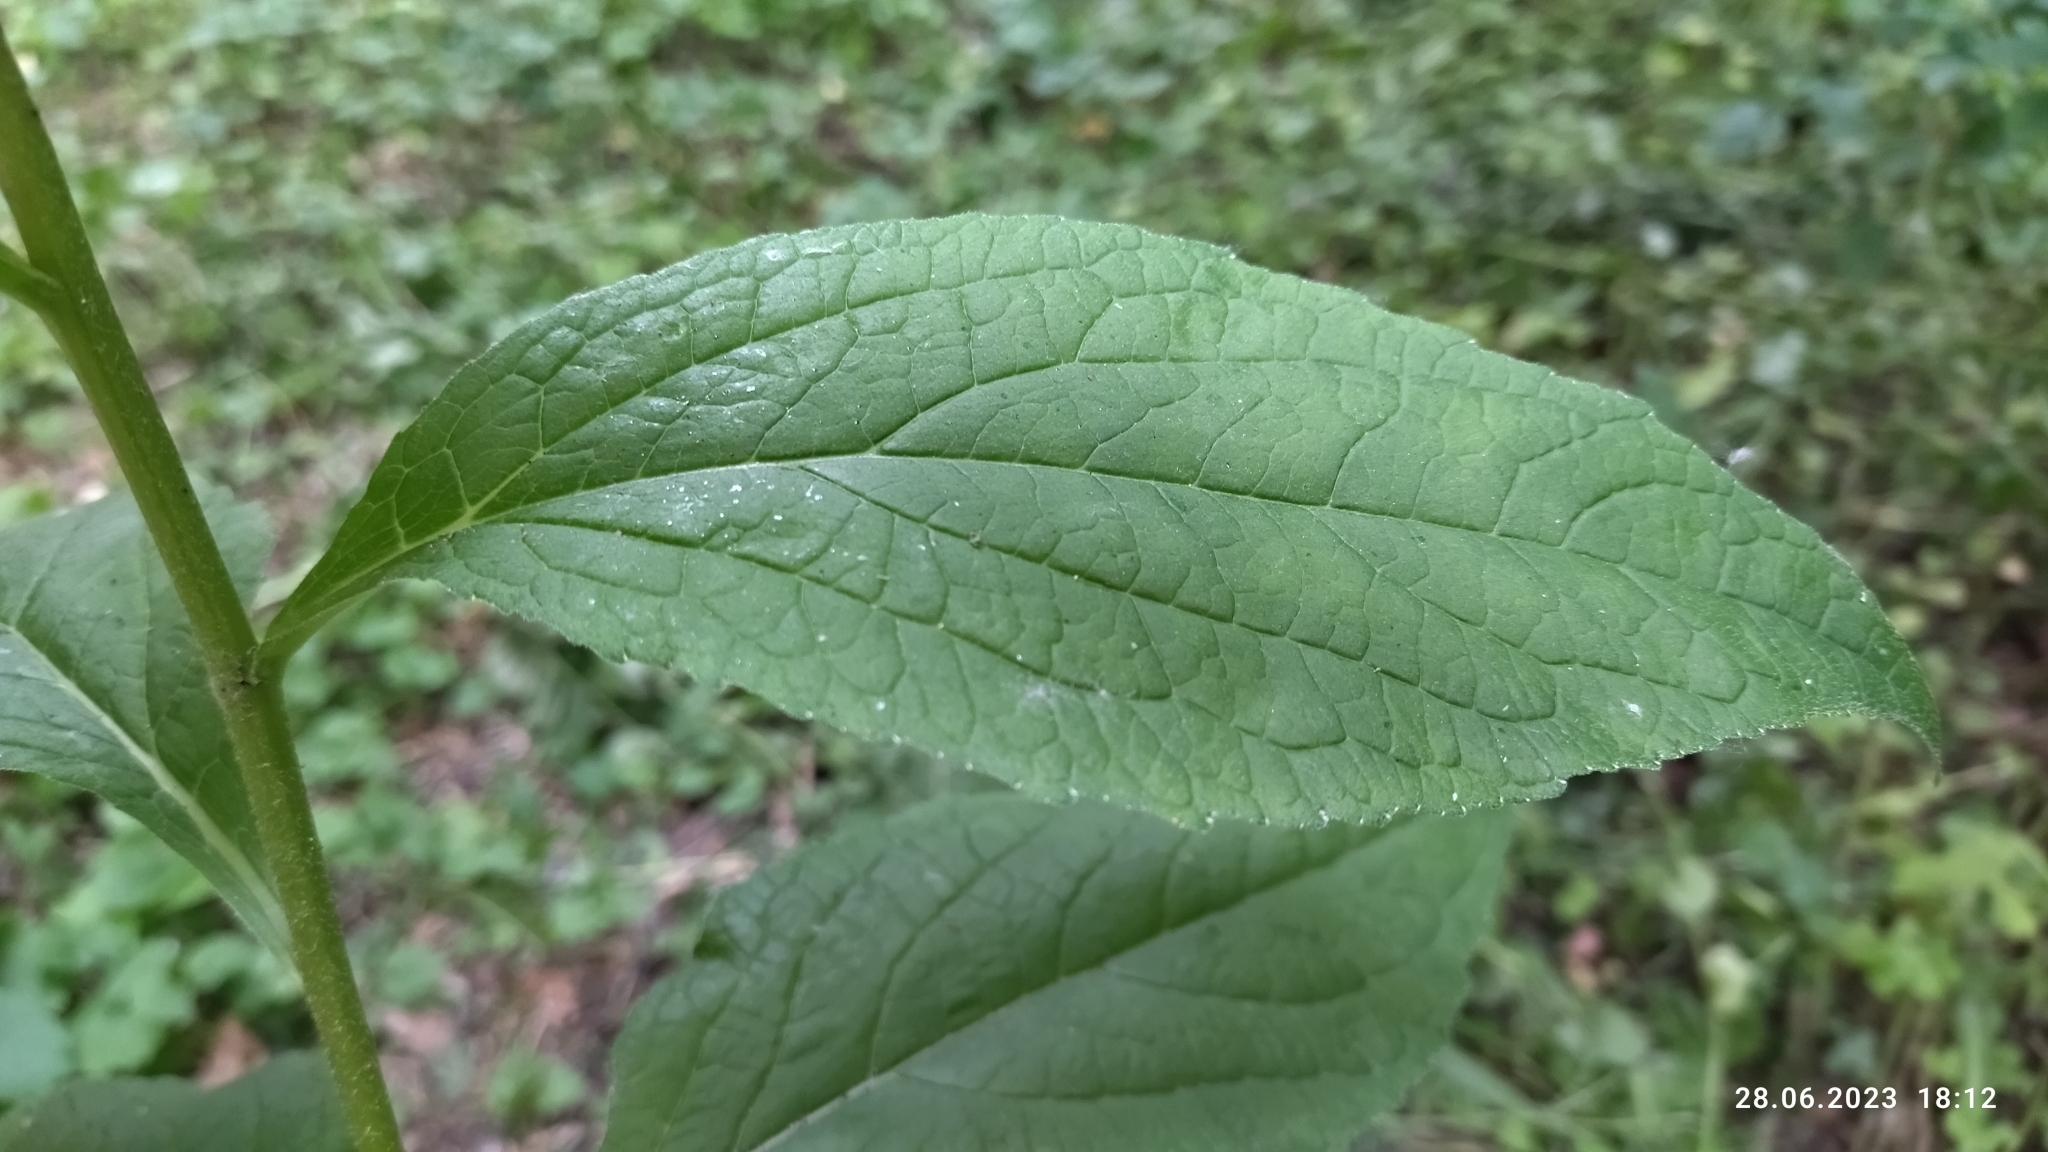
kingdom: Plantae
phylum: Tracheophyta
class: Magnoliopsida
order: Asterales
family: Campanulaceae
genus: Campanula
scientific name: Campanula latifolia
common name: Giant bellflower
